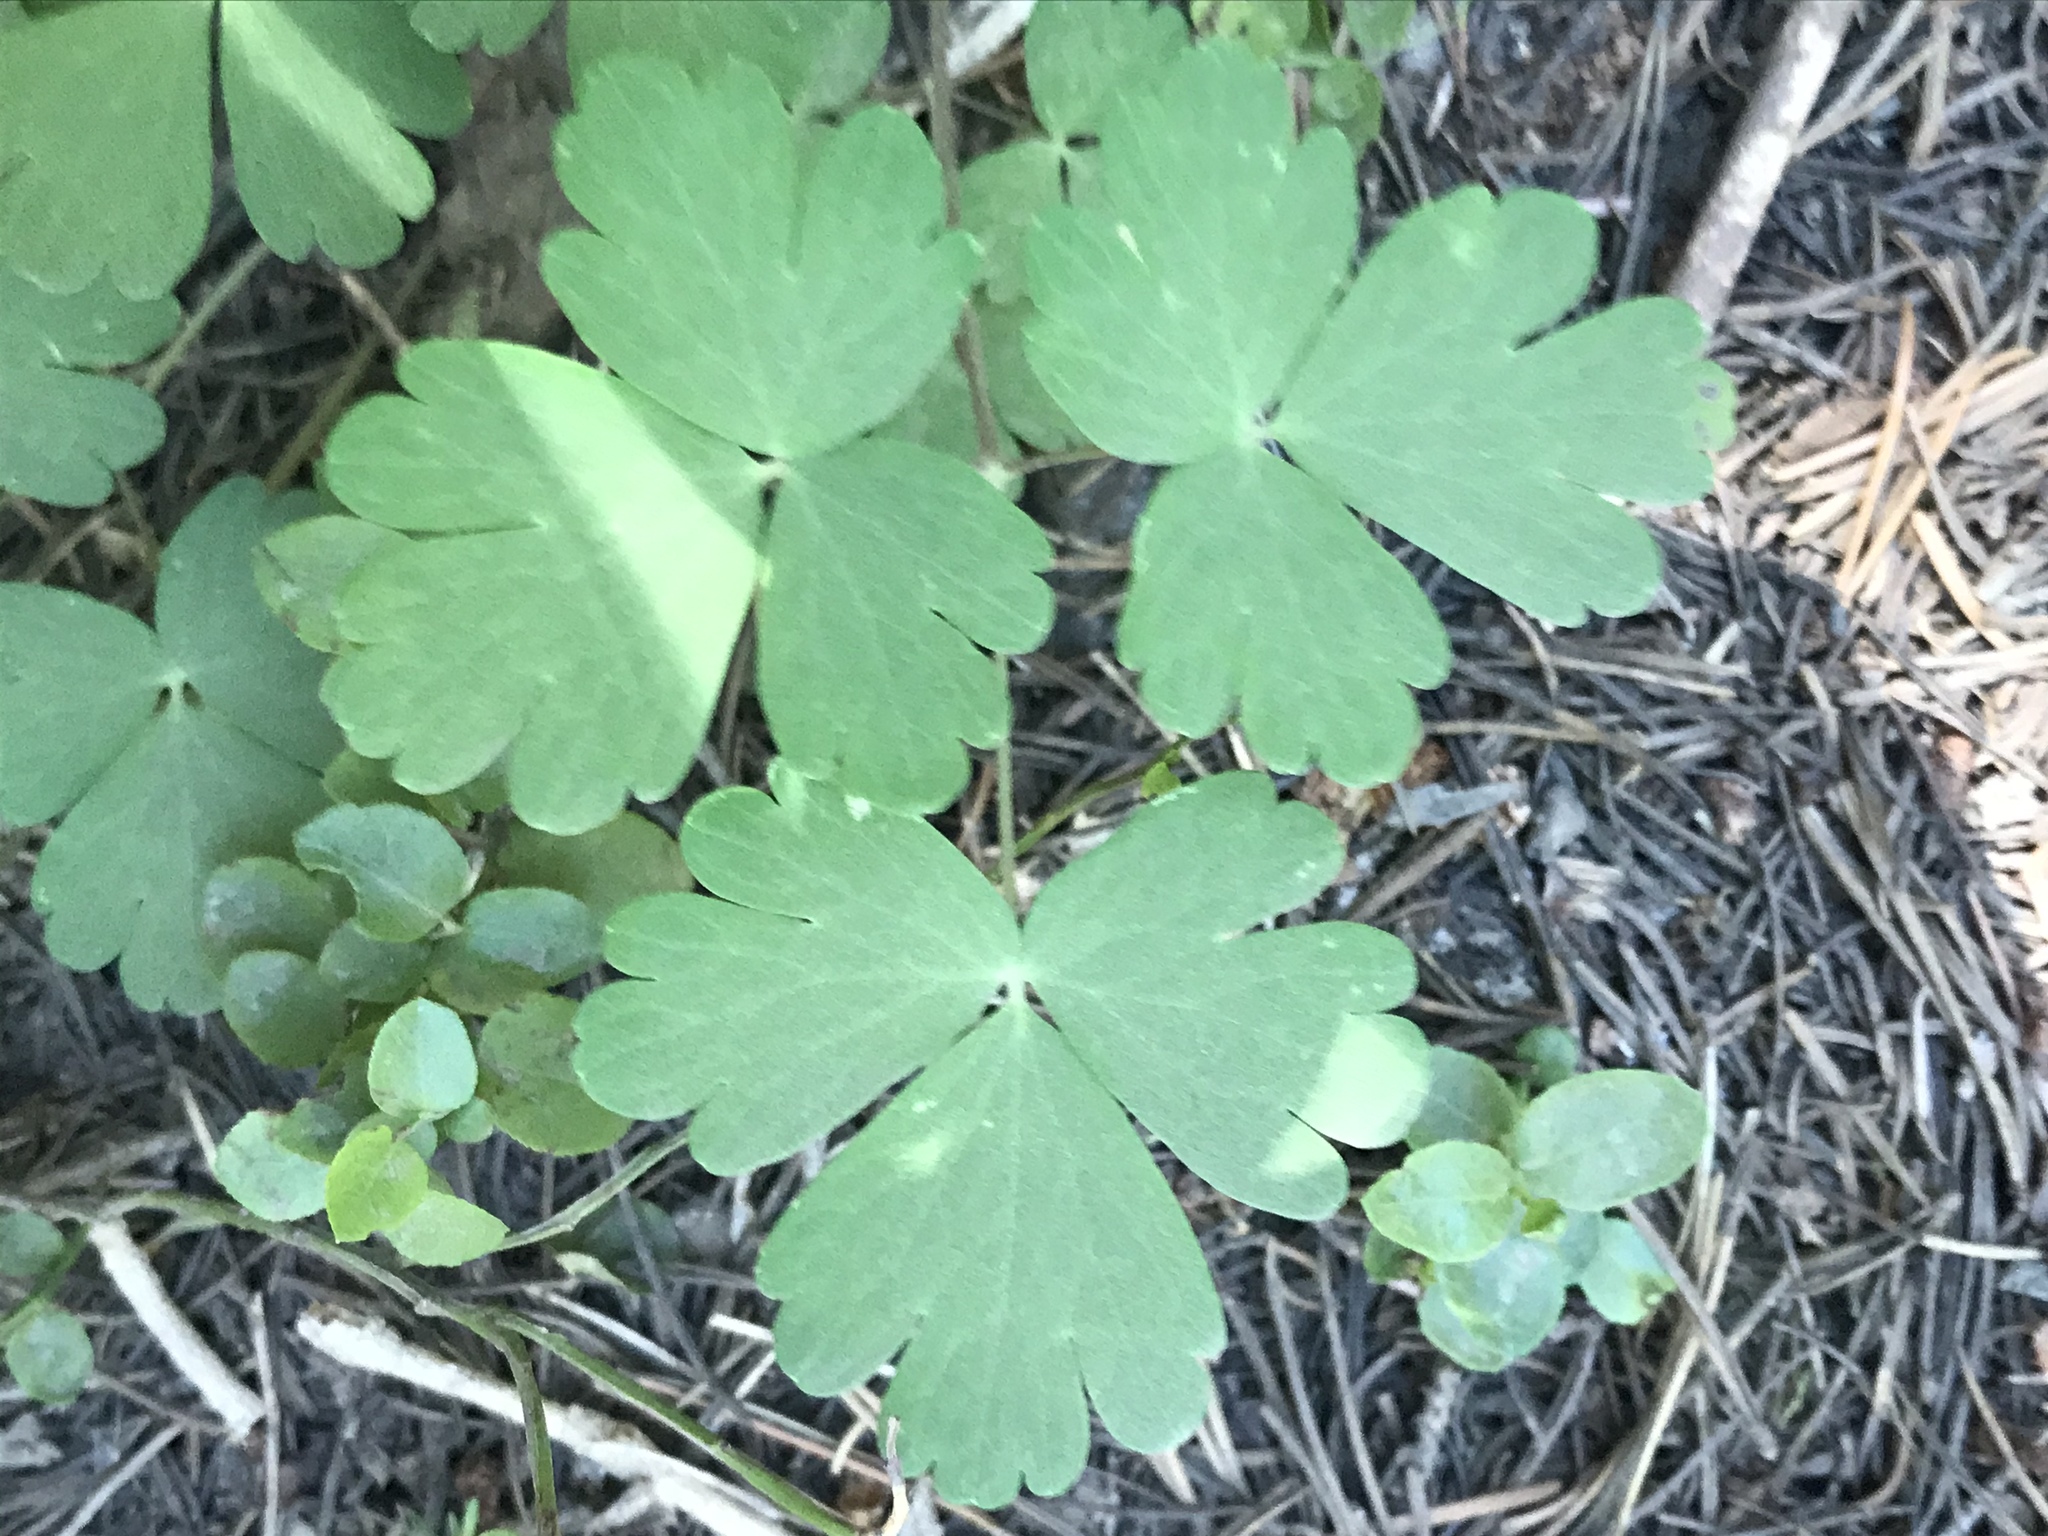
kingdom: Plantae
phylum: Tracheophyta
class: Magnoliopsida
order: Ranunculales
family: Ranunculaceae
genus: Aquilegia
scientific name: Aquilegia elegantula
